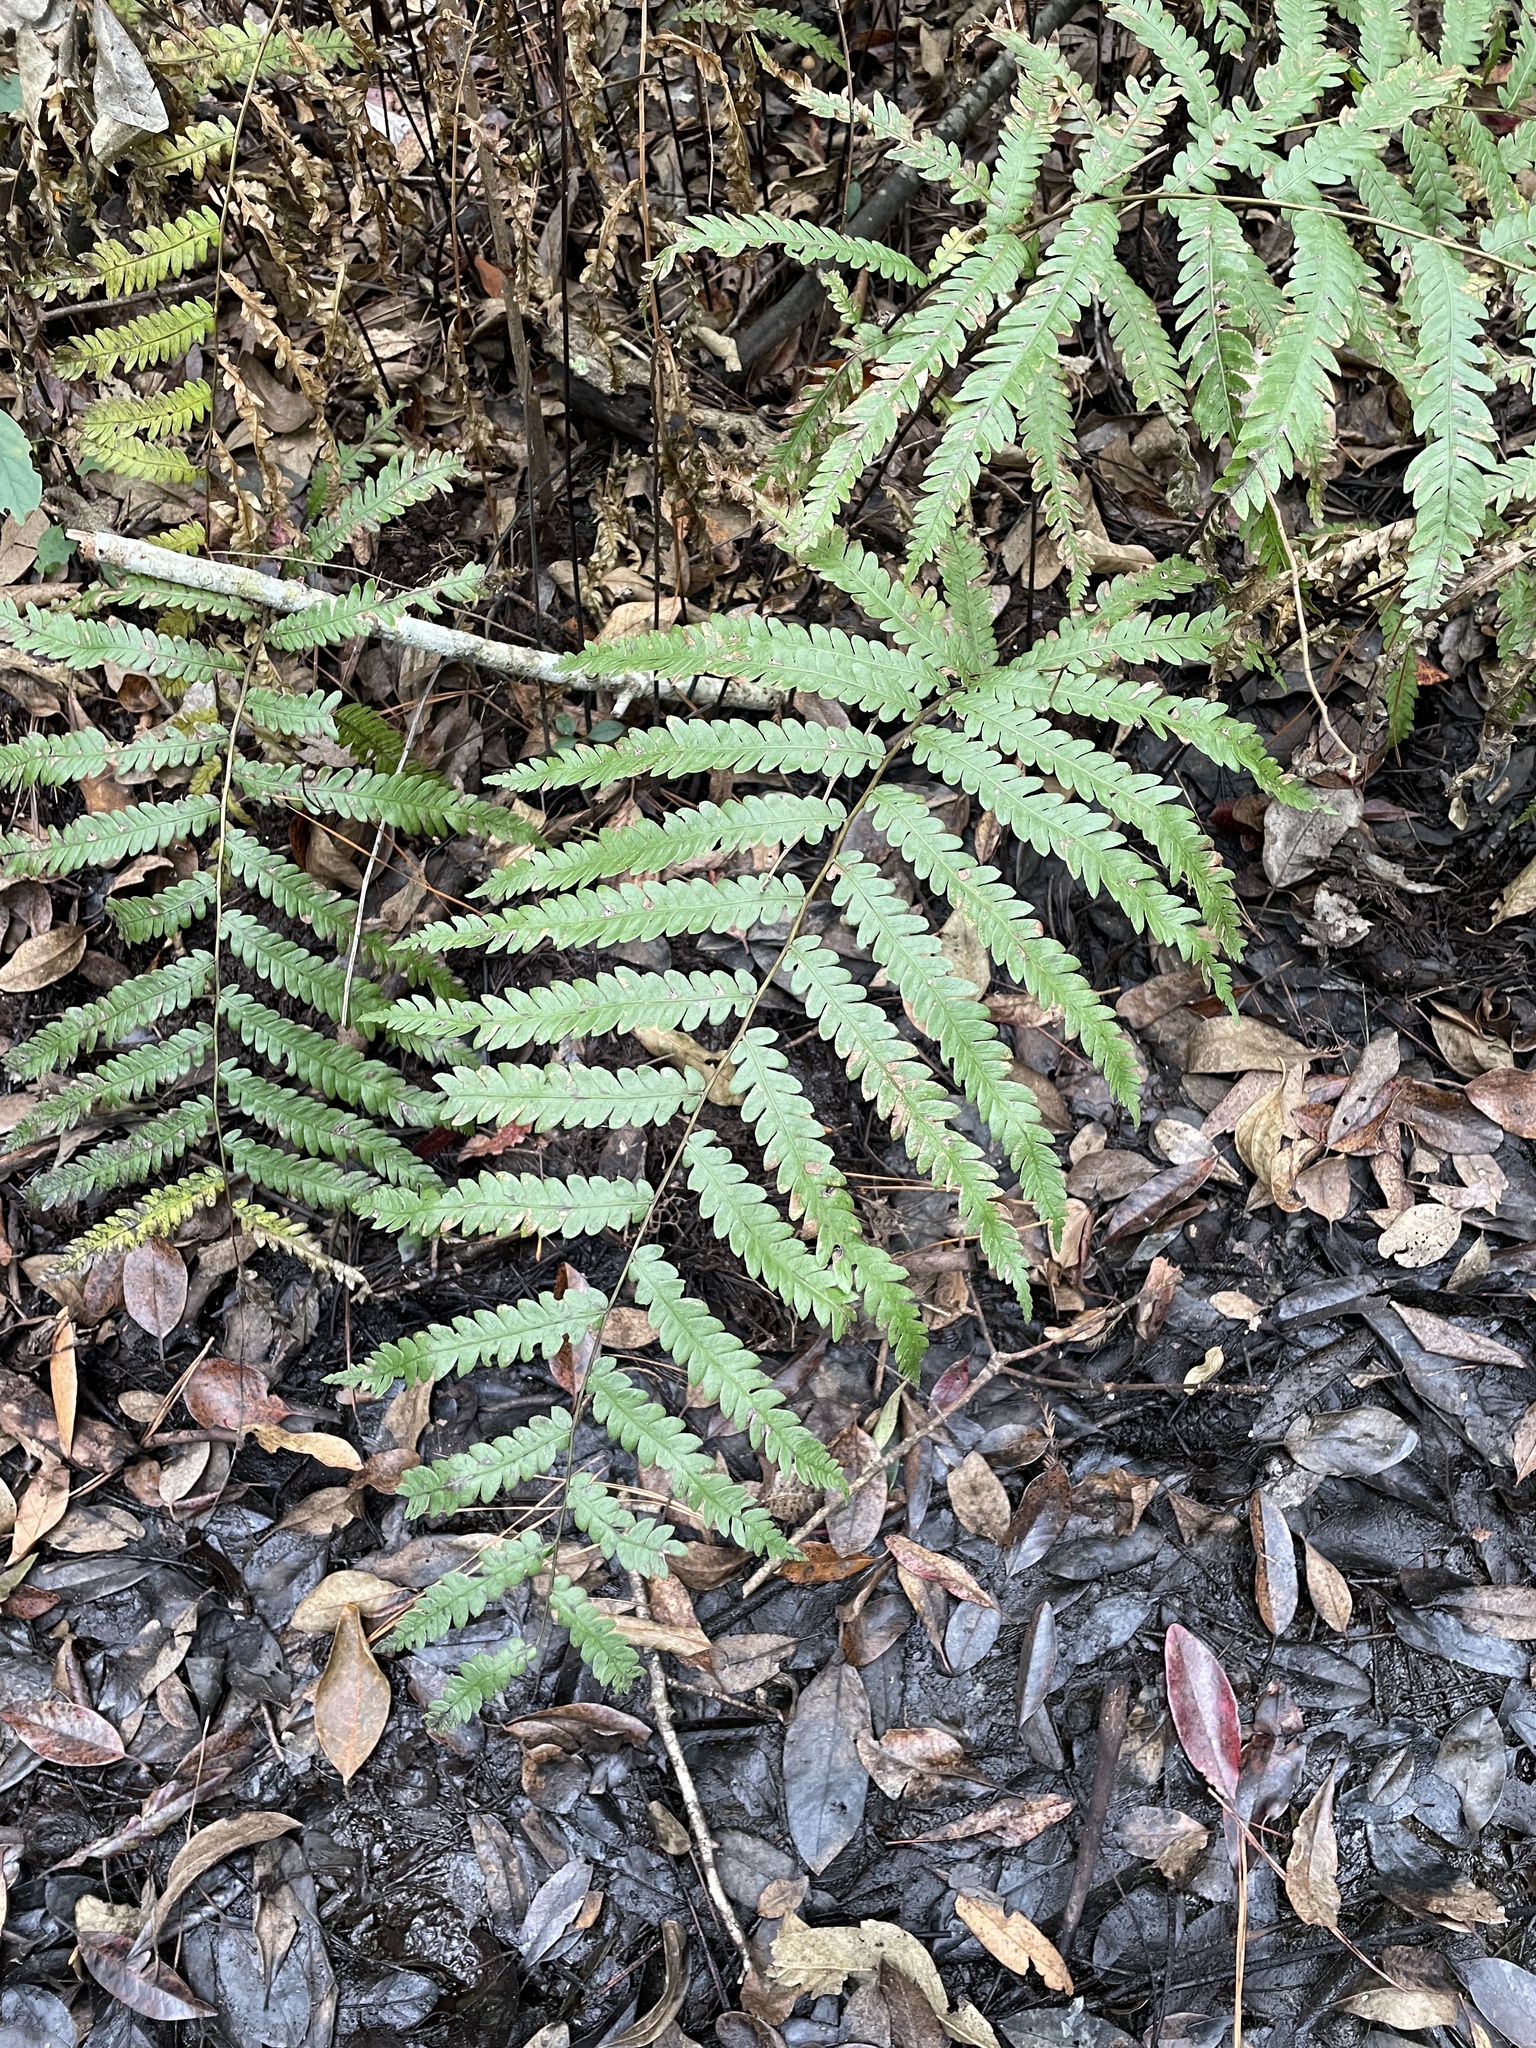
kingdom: Plantae
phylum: Tracheophyta
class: Polypodiopsida
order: Polypodiales
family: Blechnaceae
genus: Anchistea
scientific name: Anchistea virginica
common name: Virginia chain fern
